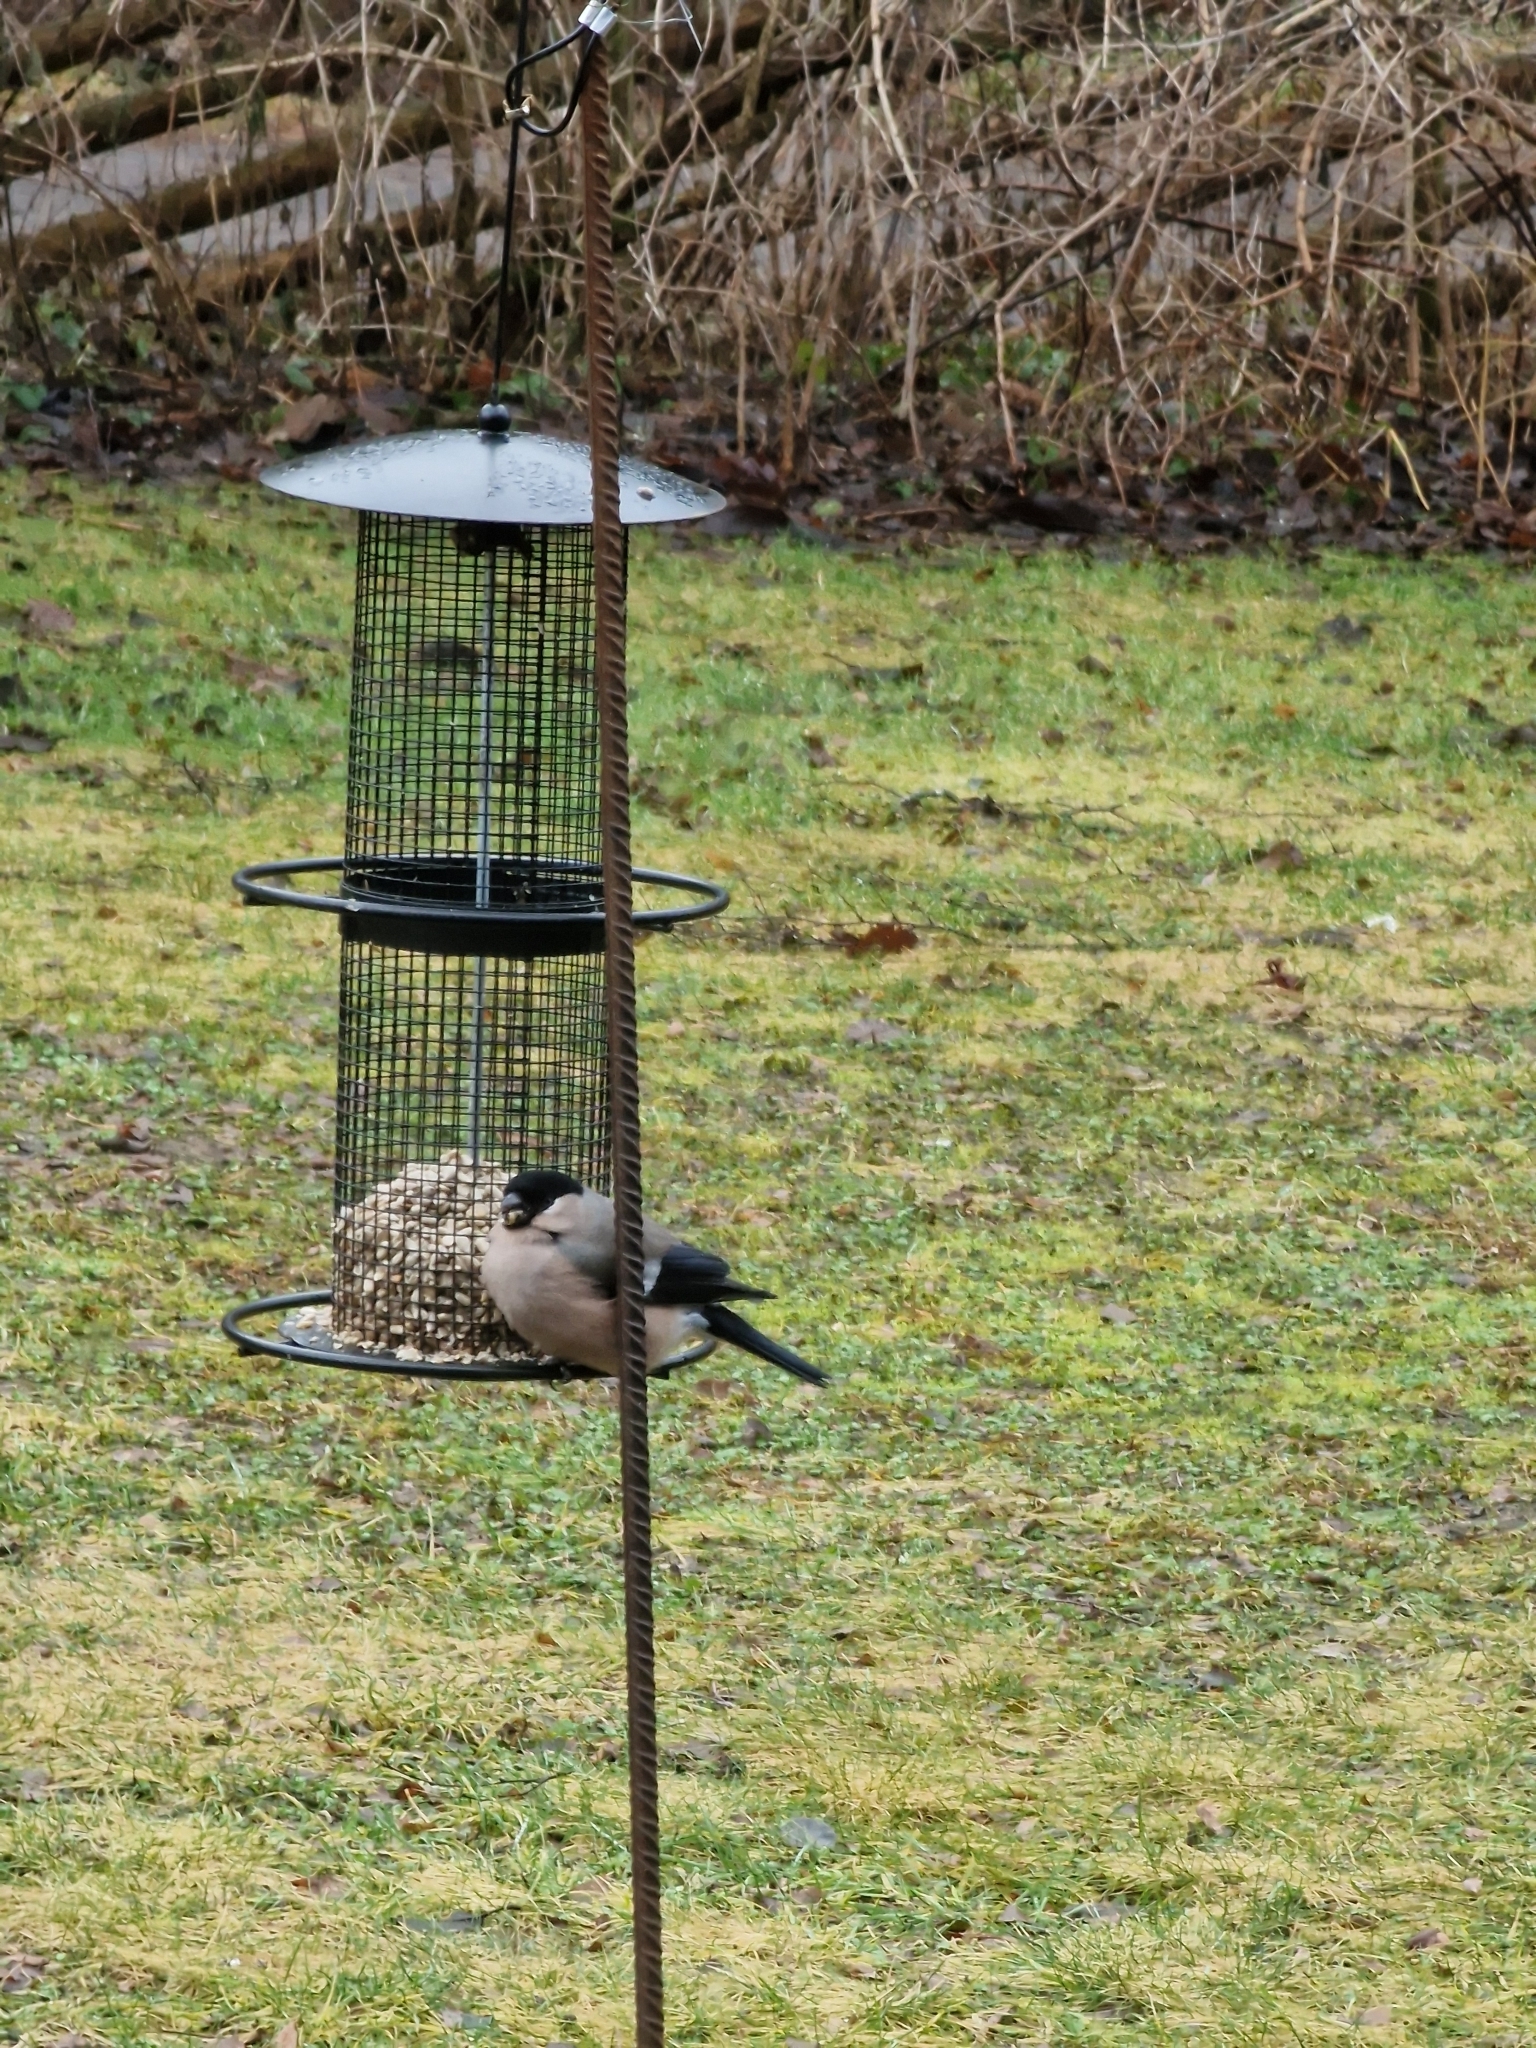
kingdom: Animalia
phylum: Chordata
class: Aves
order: Passeriformes
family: Fringillidae
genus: Pyrrhula
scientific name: Pyrrhula pyrrhula
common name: Eurasian bullfinch
